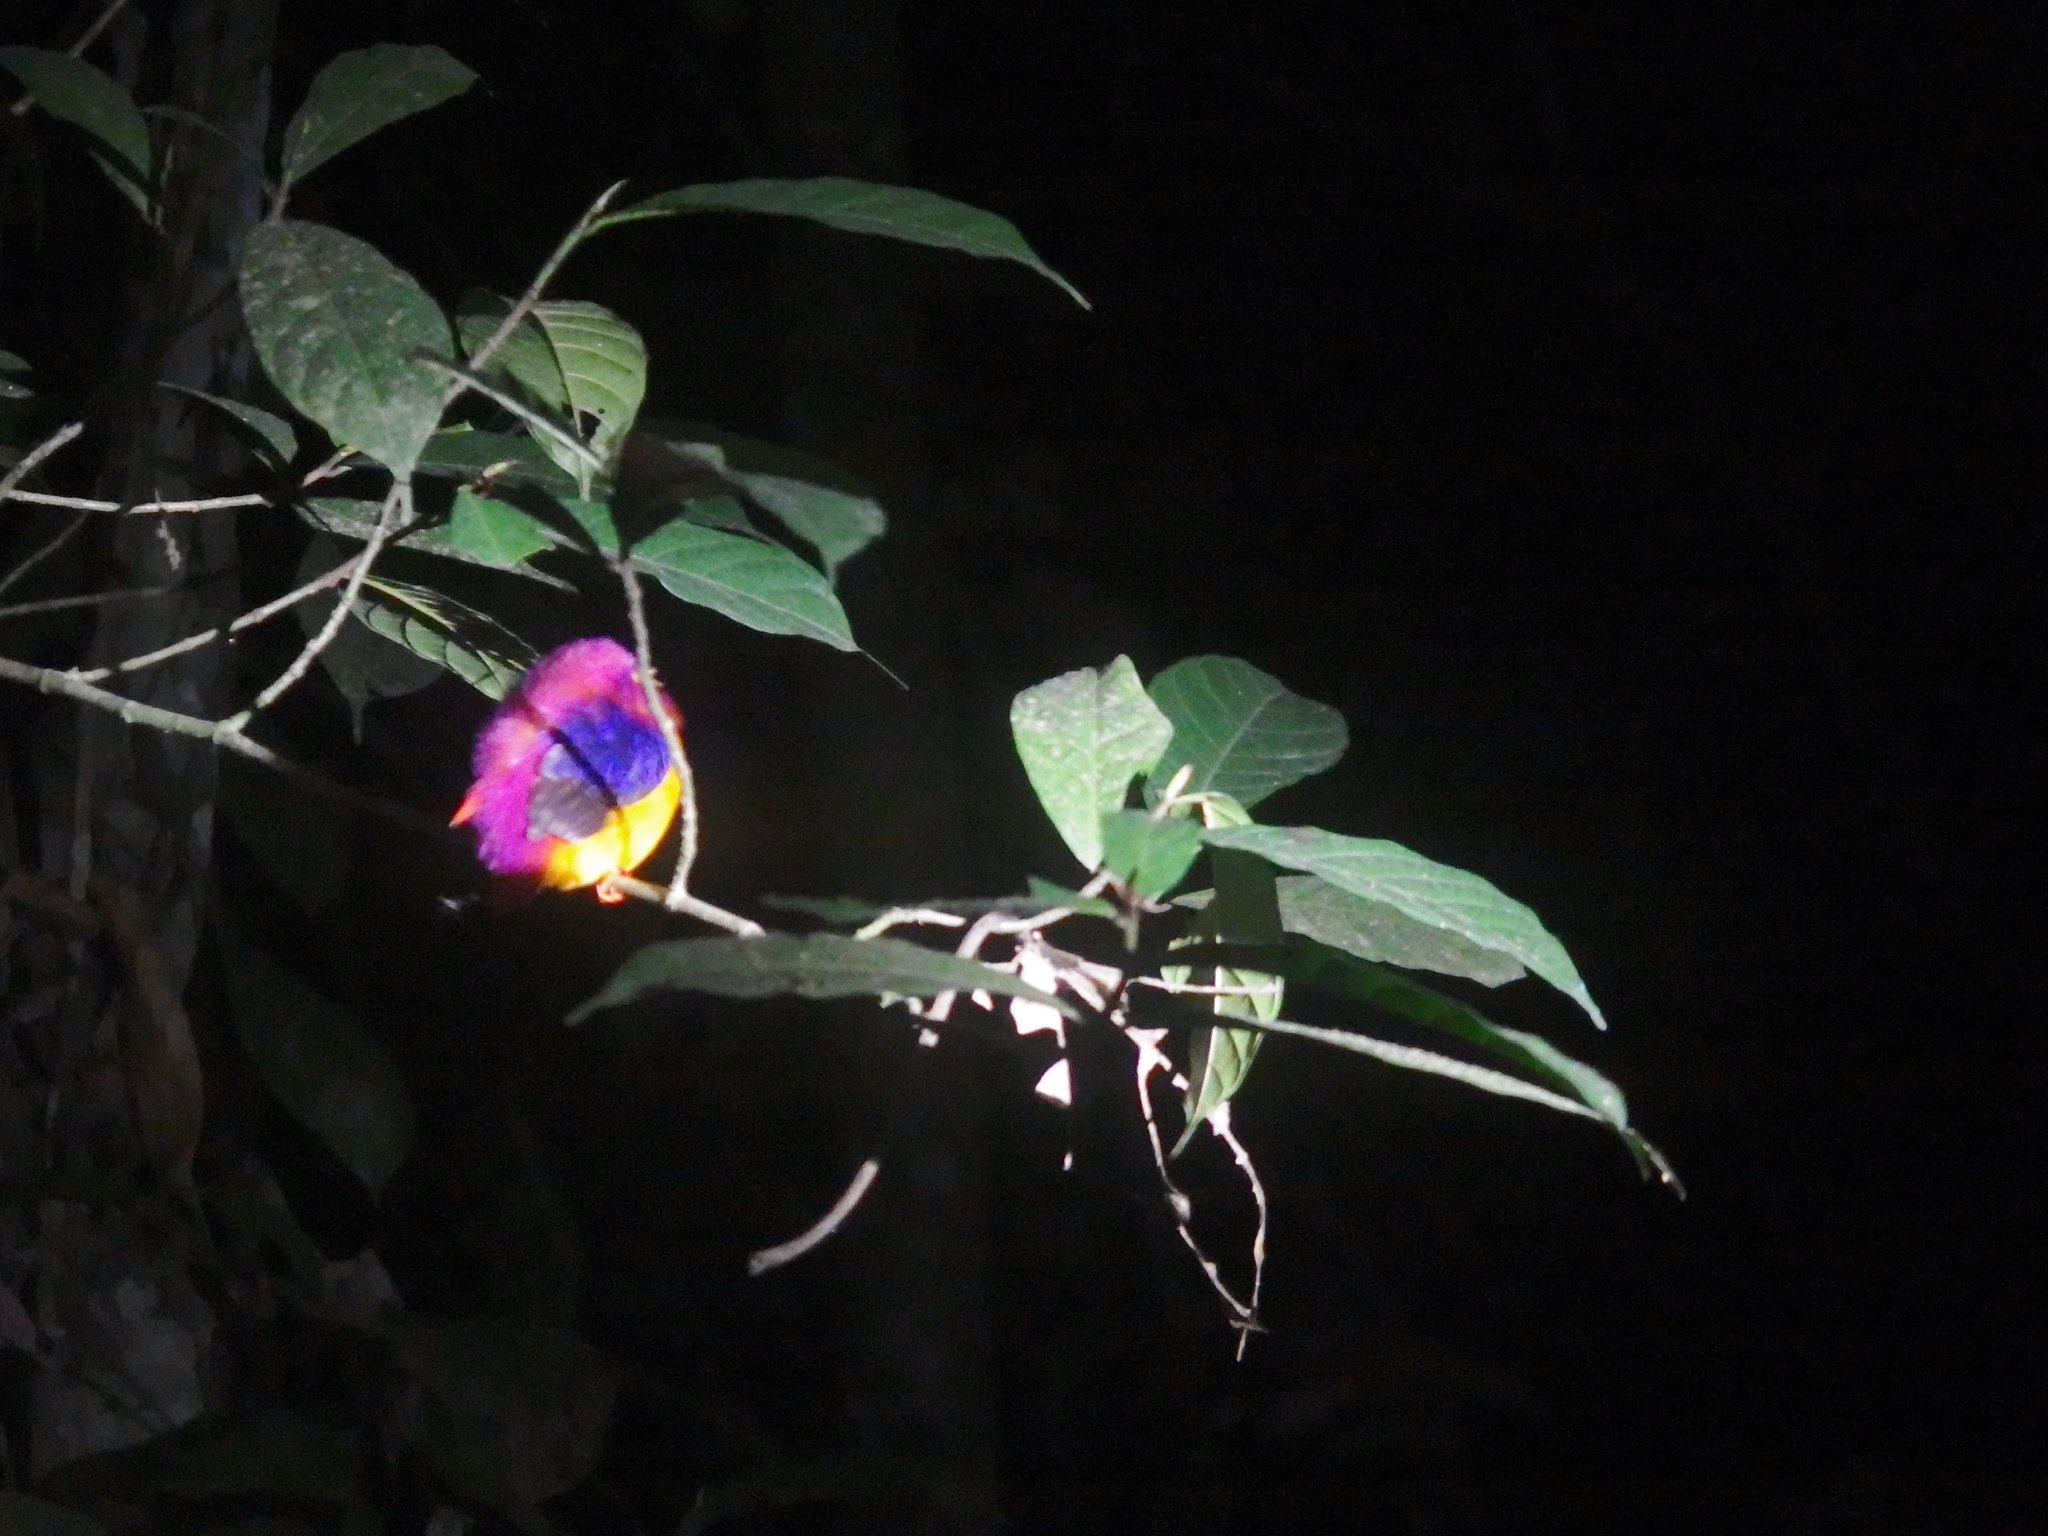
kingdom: Animalia
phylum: Chordata
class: Aves
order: Coraciiformes
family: Alcedinidae
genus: Ceyx
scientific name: Ceyx erithaca
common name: Oriental dwarf kingfisher
